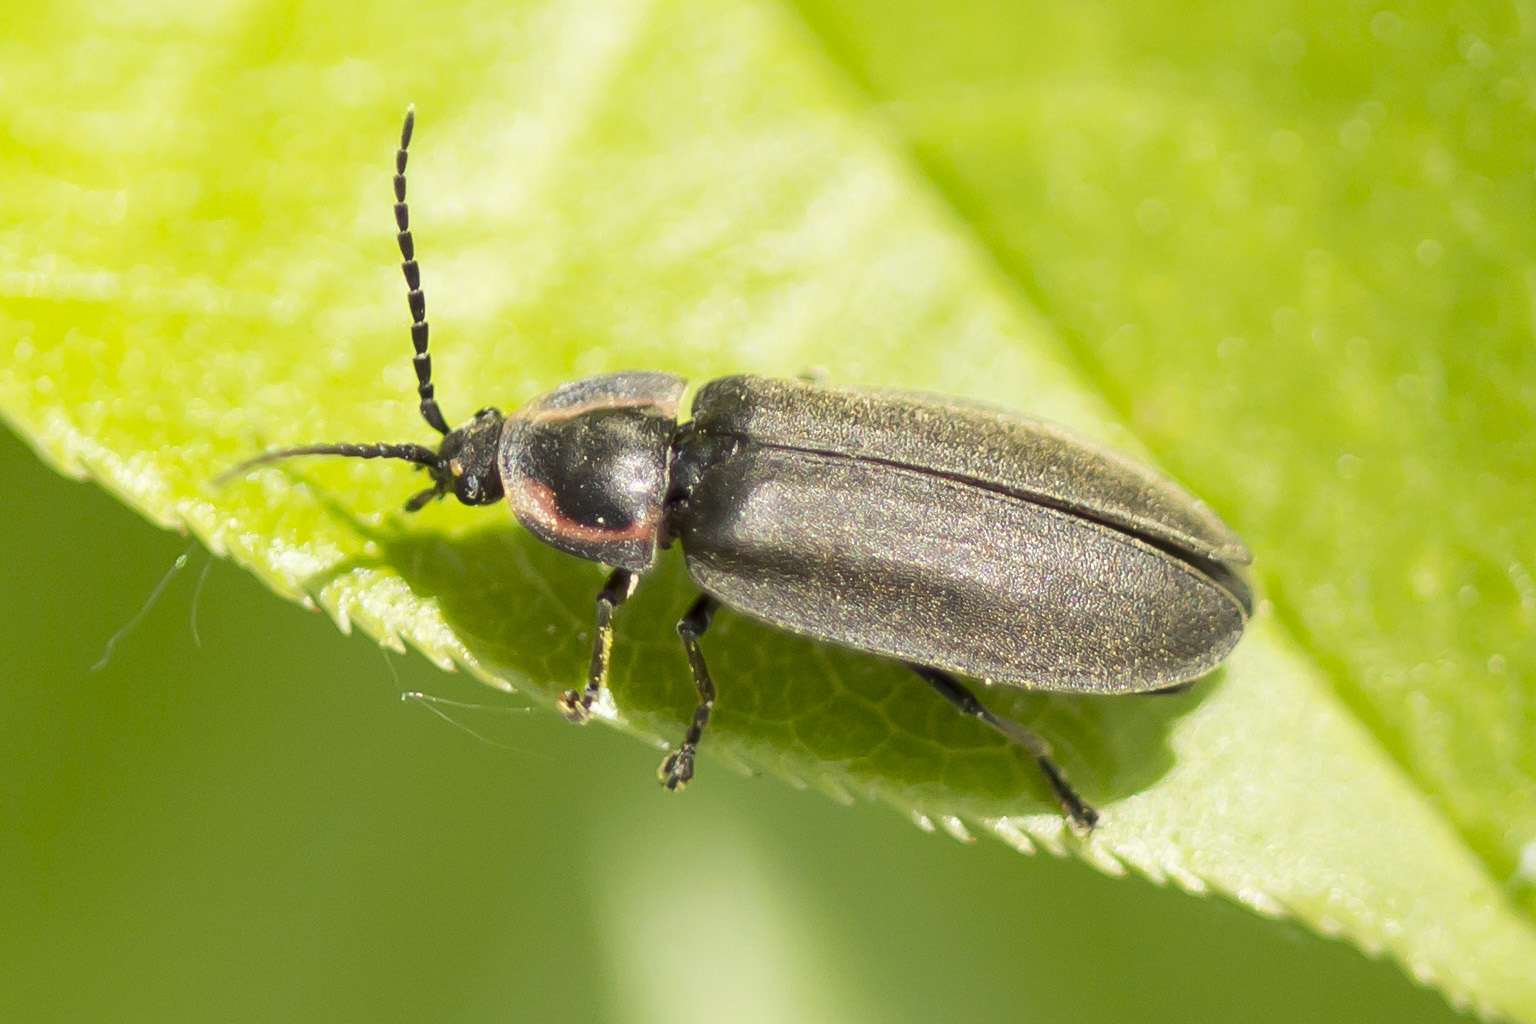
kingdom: Animalia
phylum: Arthropoda
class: Insecta
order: Coleoptera
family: Lampyridae
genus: Photinus
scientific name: Photinus corrusca
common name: Winter firefly
